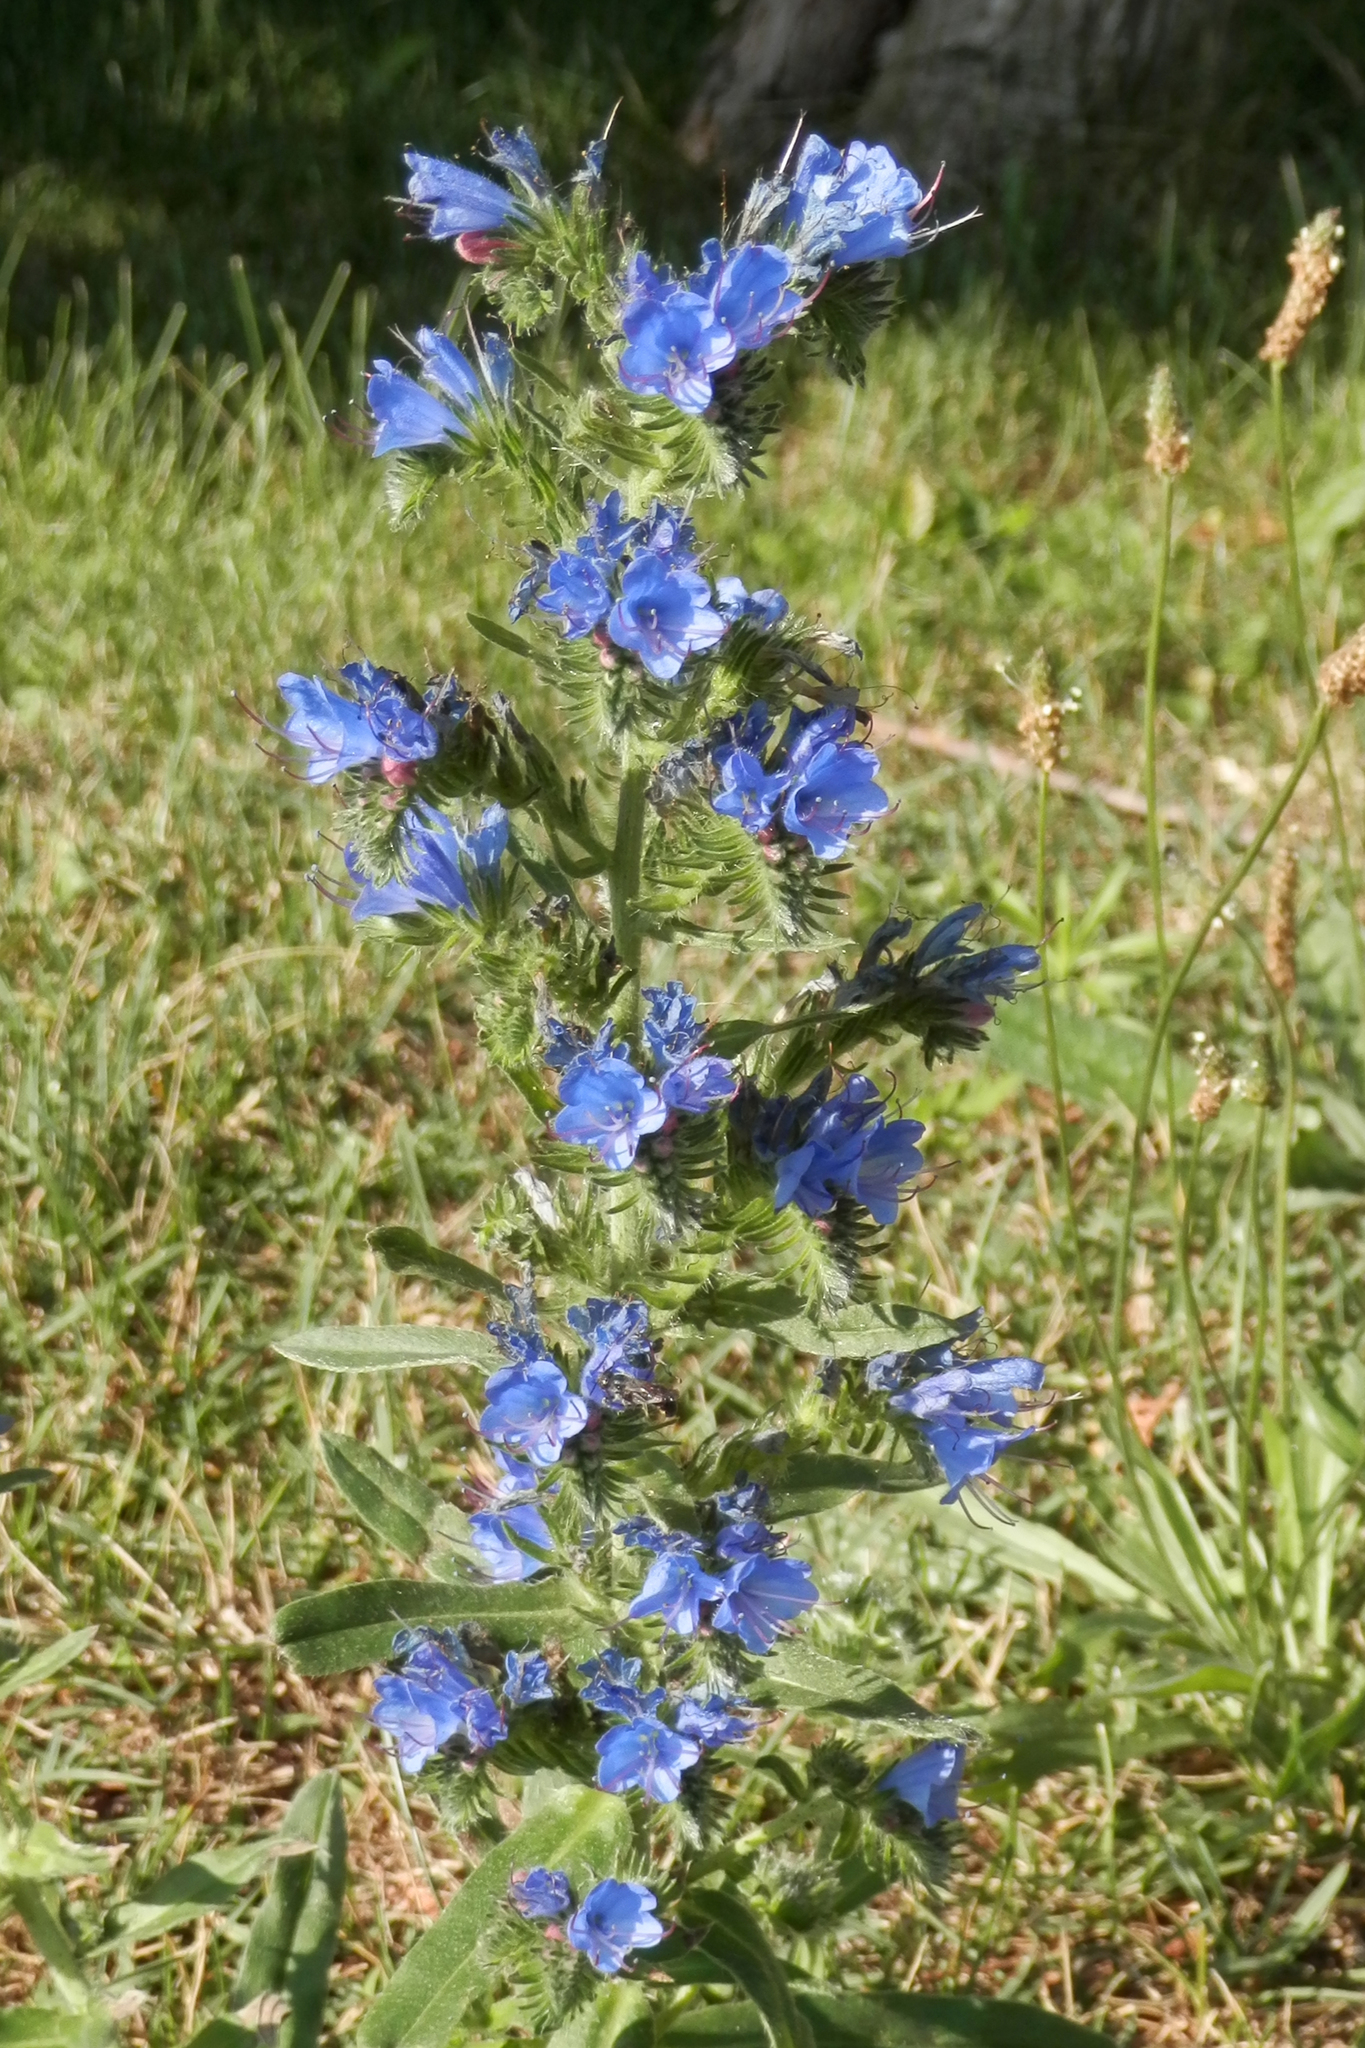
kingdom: Plantae
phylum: Tracheophyta
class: Magnoliopsida
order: Boraginales
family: Boraginaceae
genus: Echium
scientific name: Echium vulgare
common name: Common viper's bugloss
